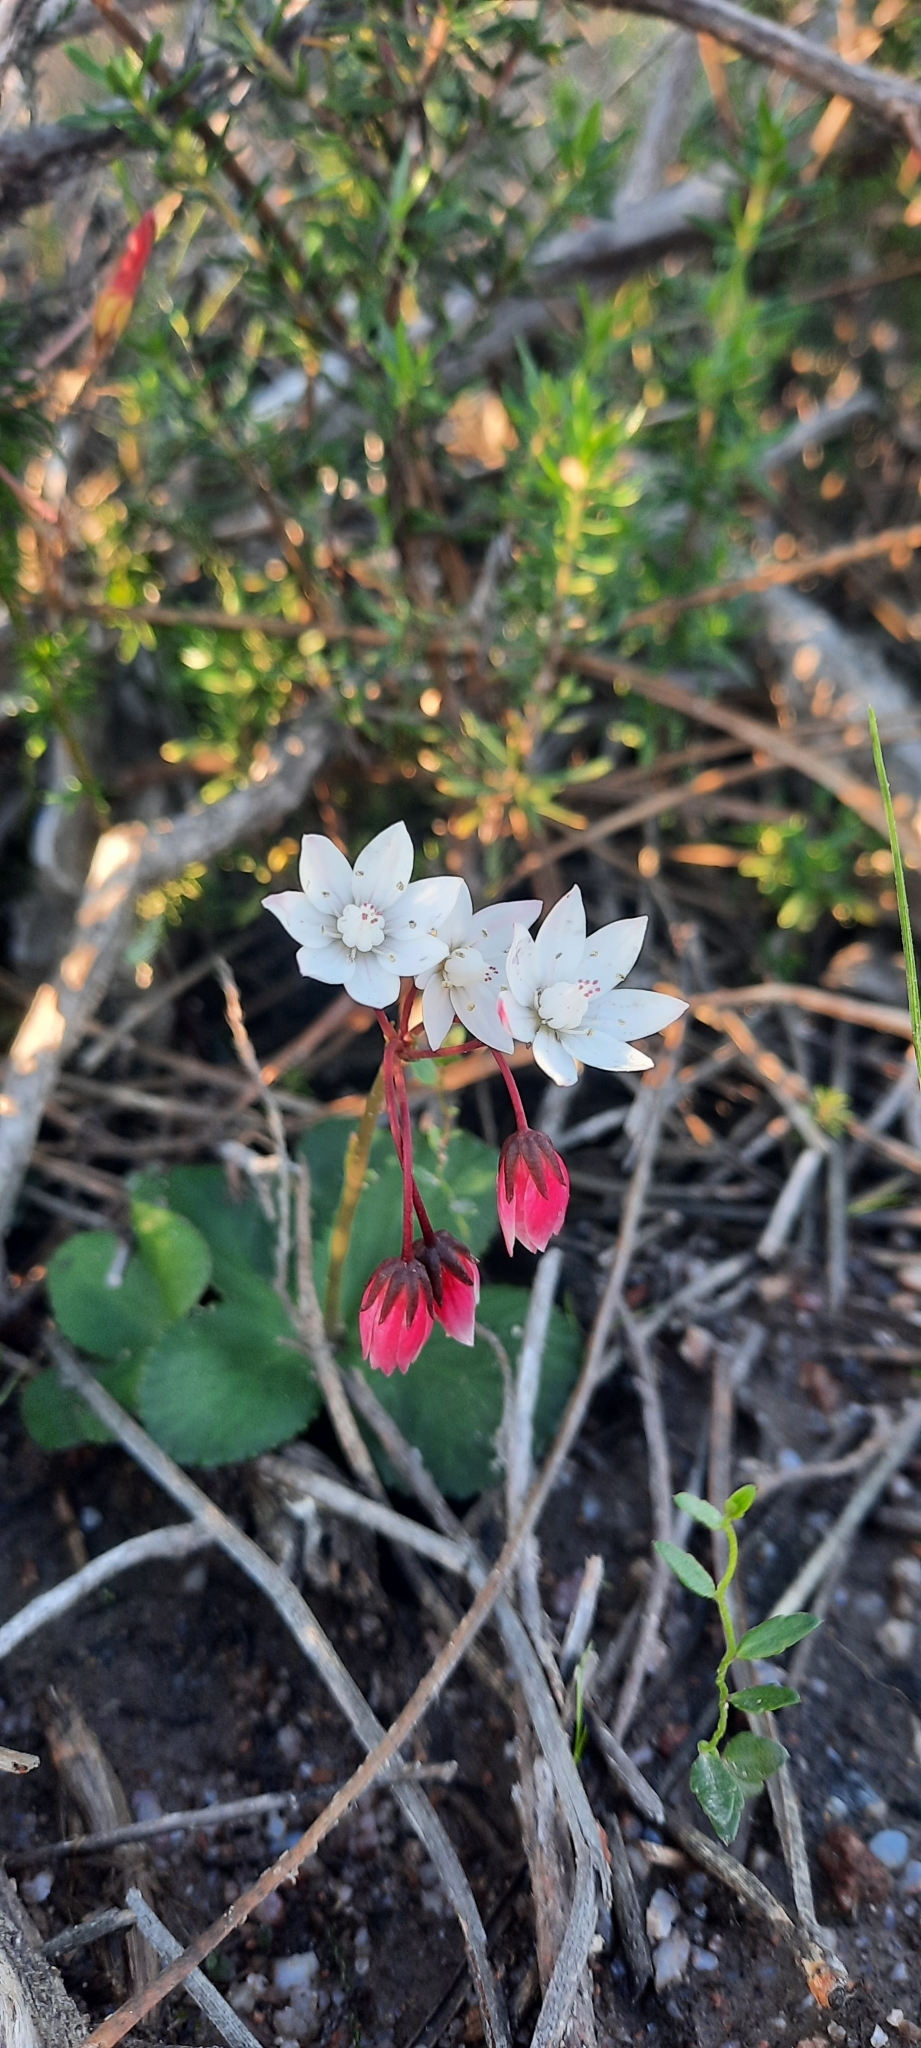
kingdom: Plantae
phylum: Tracheophyta
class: Magnoliopsida
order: Saxifragales
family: Crassulaceae
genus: Crassula
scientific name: Crassula capensis
